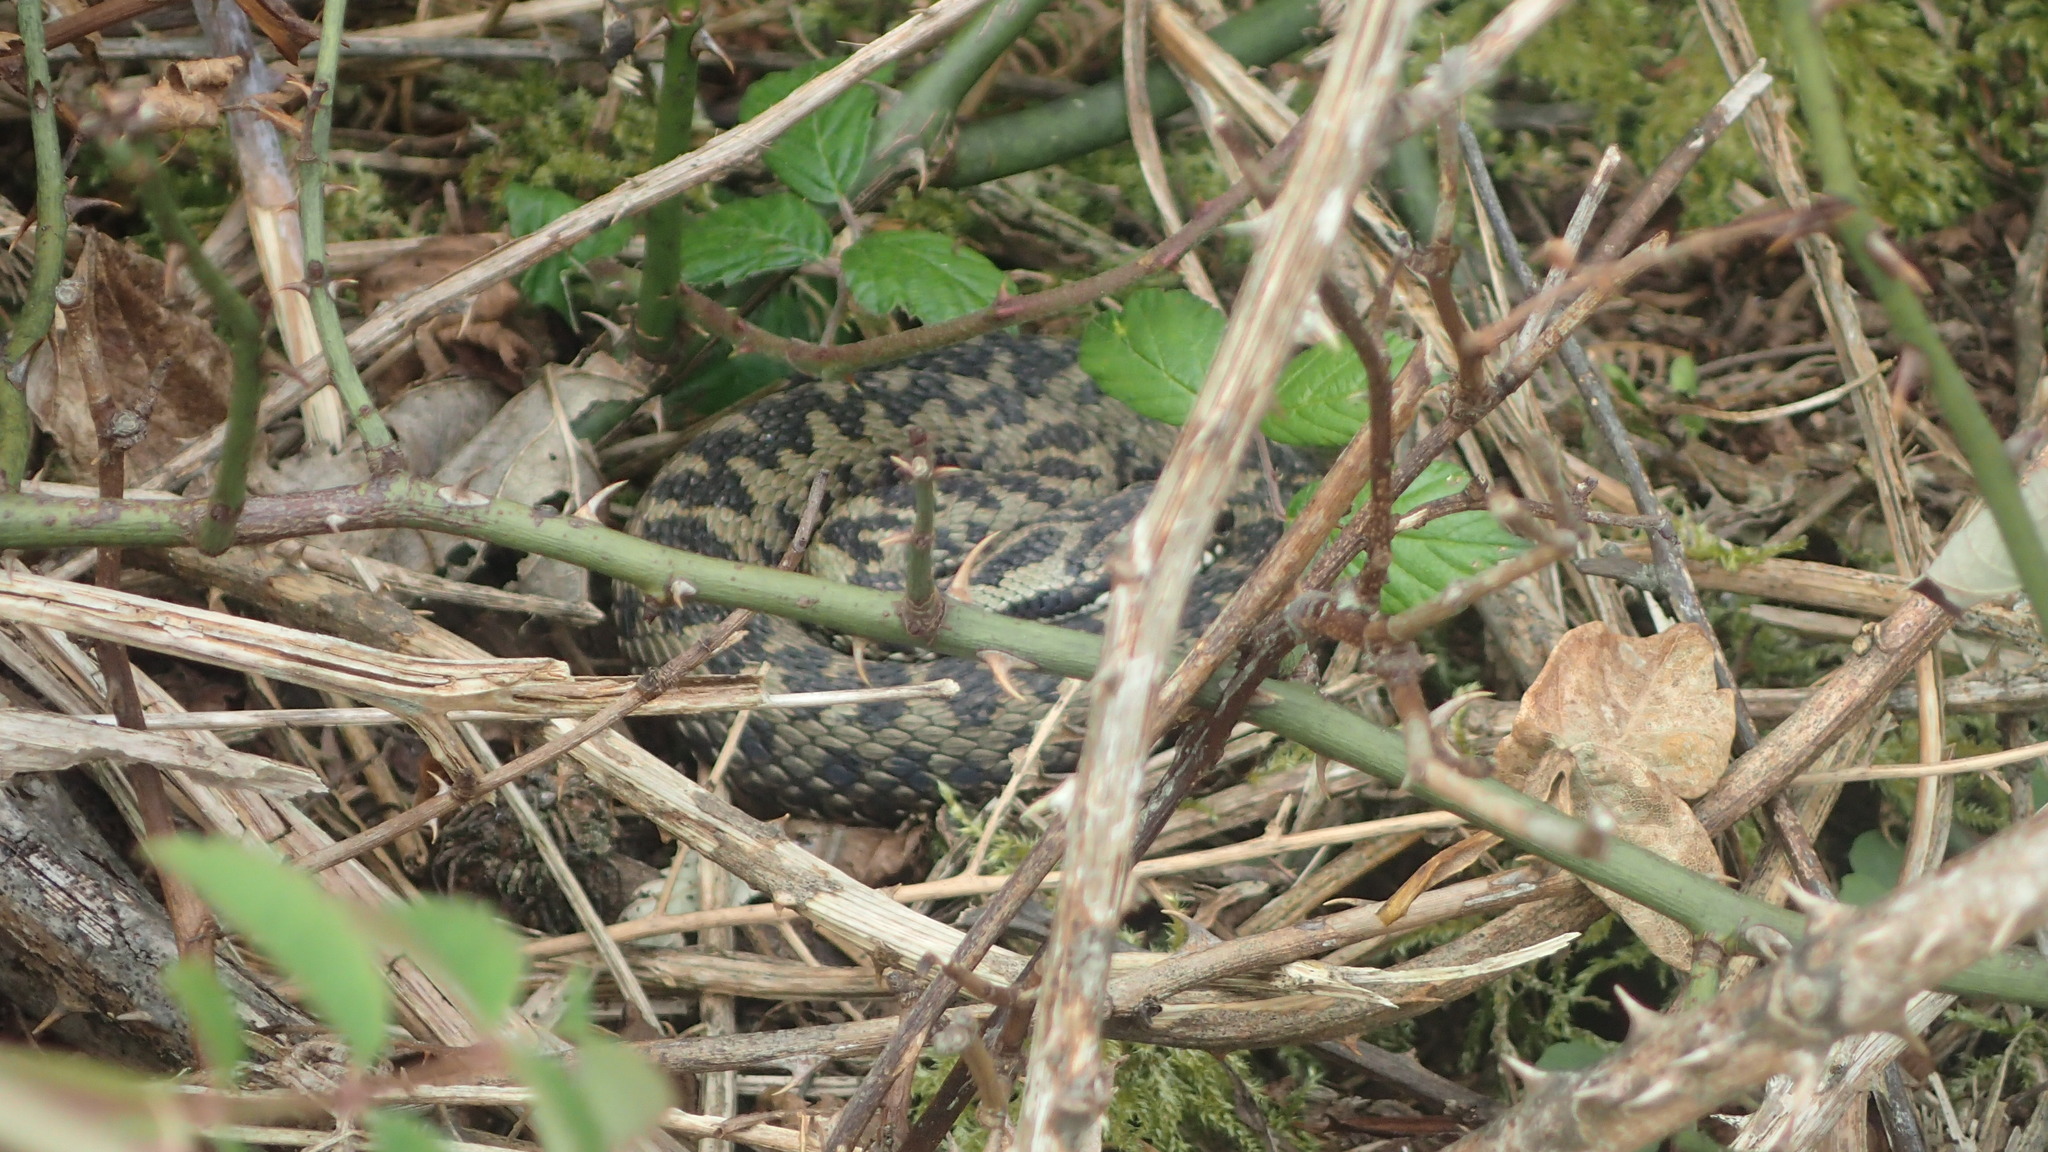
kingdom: Animalia
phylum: Chordata
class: Squamata
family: Viperidae
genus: Vipera
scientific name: Vipera berus
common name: Adder
